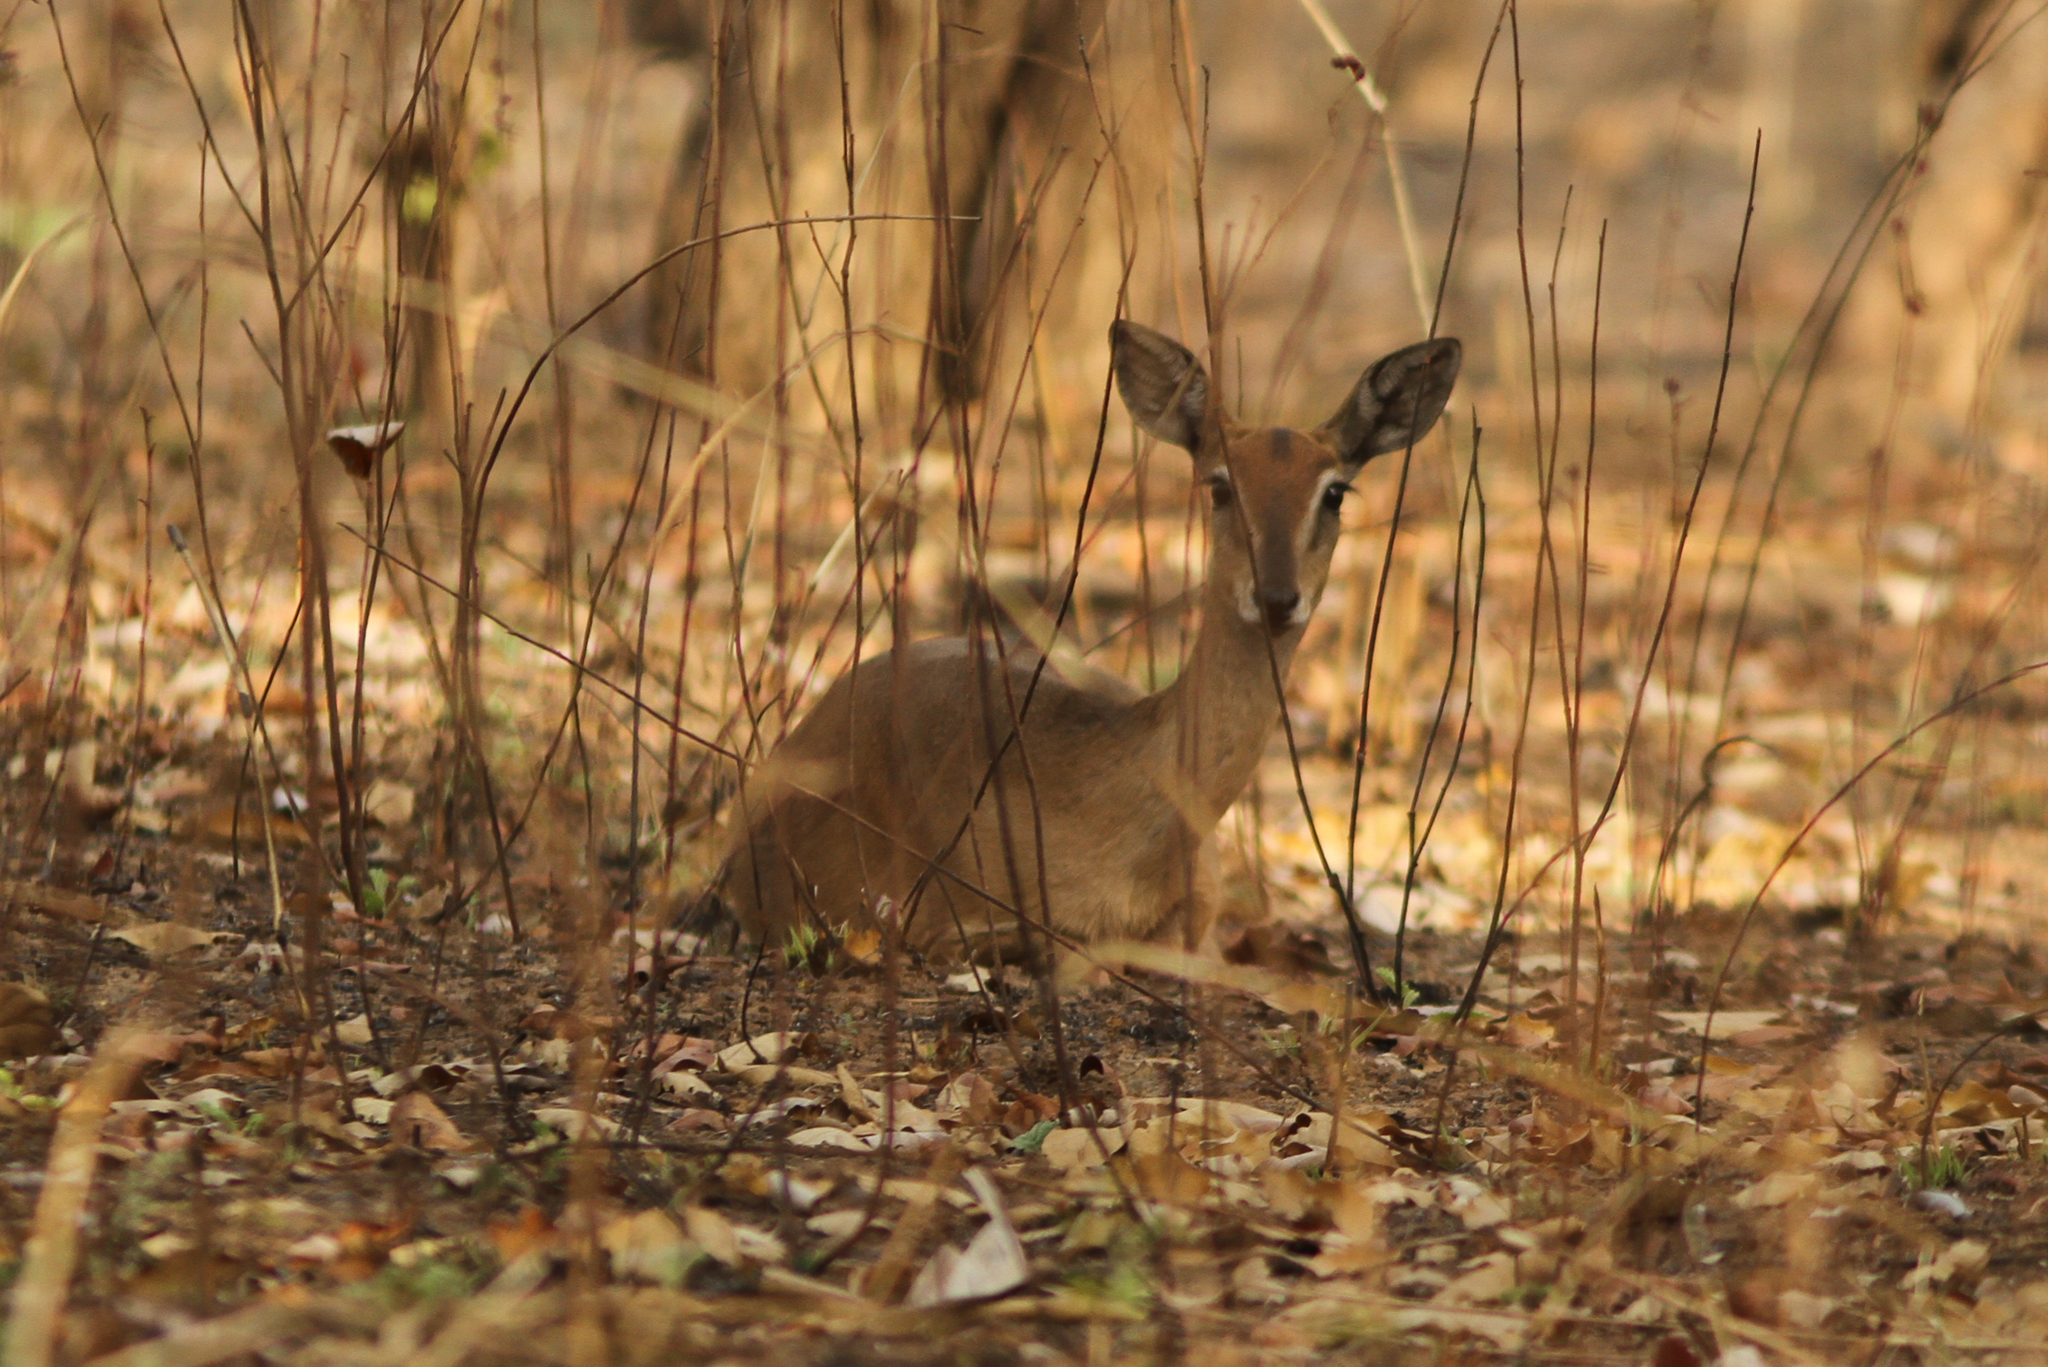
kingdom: Animalia
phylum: Chordata
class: Mammalia
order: Artiodactyla
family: Bovidae
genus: Ourebia
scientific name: Ourebia ourebi
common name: Oribi
